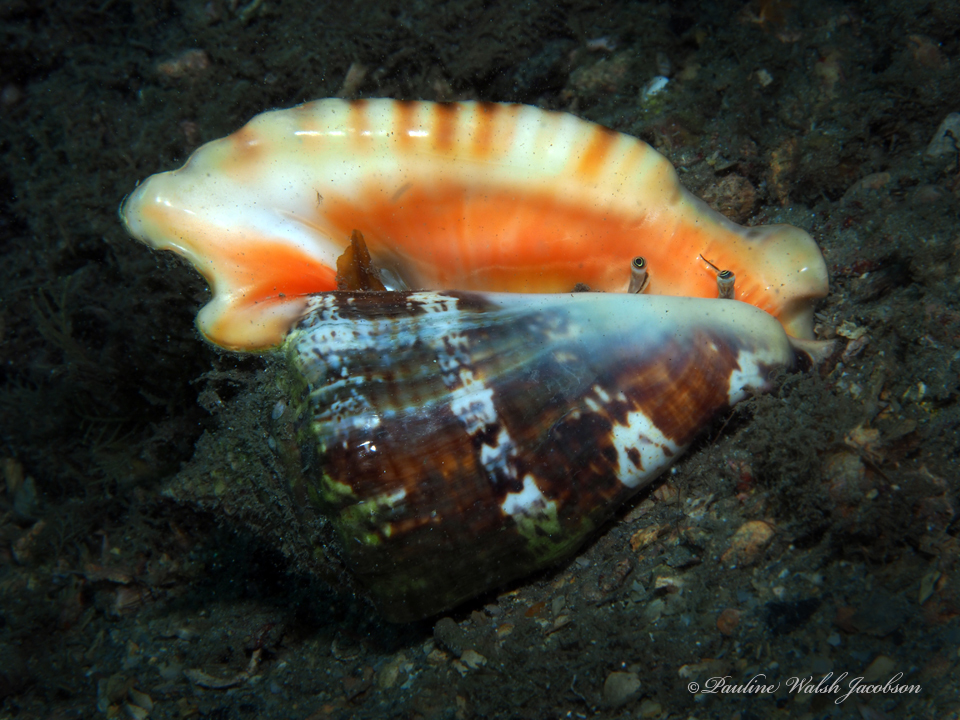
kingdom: Animalia
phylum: Mollusca
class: Gastropoda
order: Littorinimorpha
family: Strombidae
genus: Lobatus
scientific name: Lobatus raninus
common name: Hawk-wing conch
